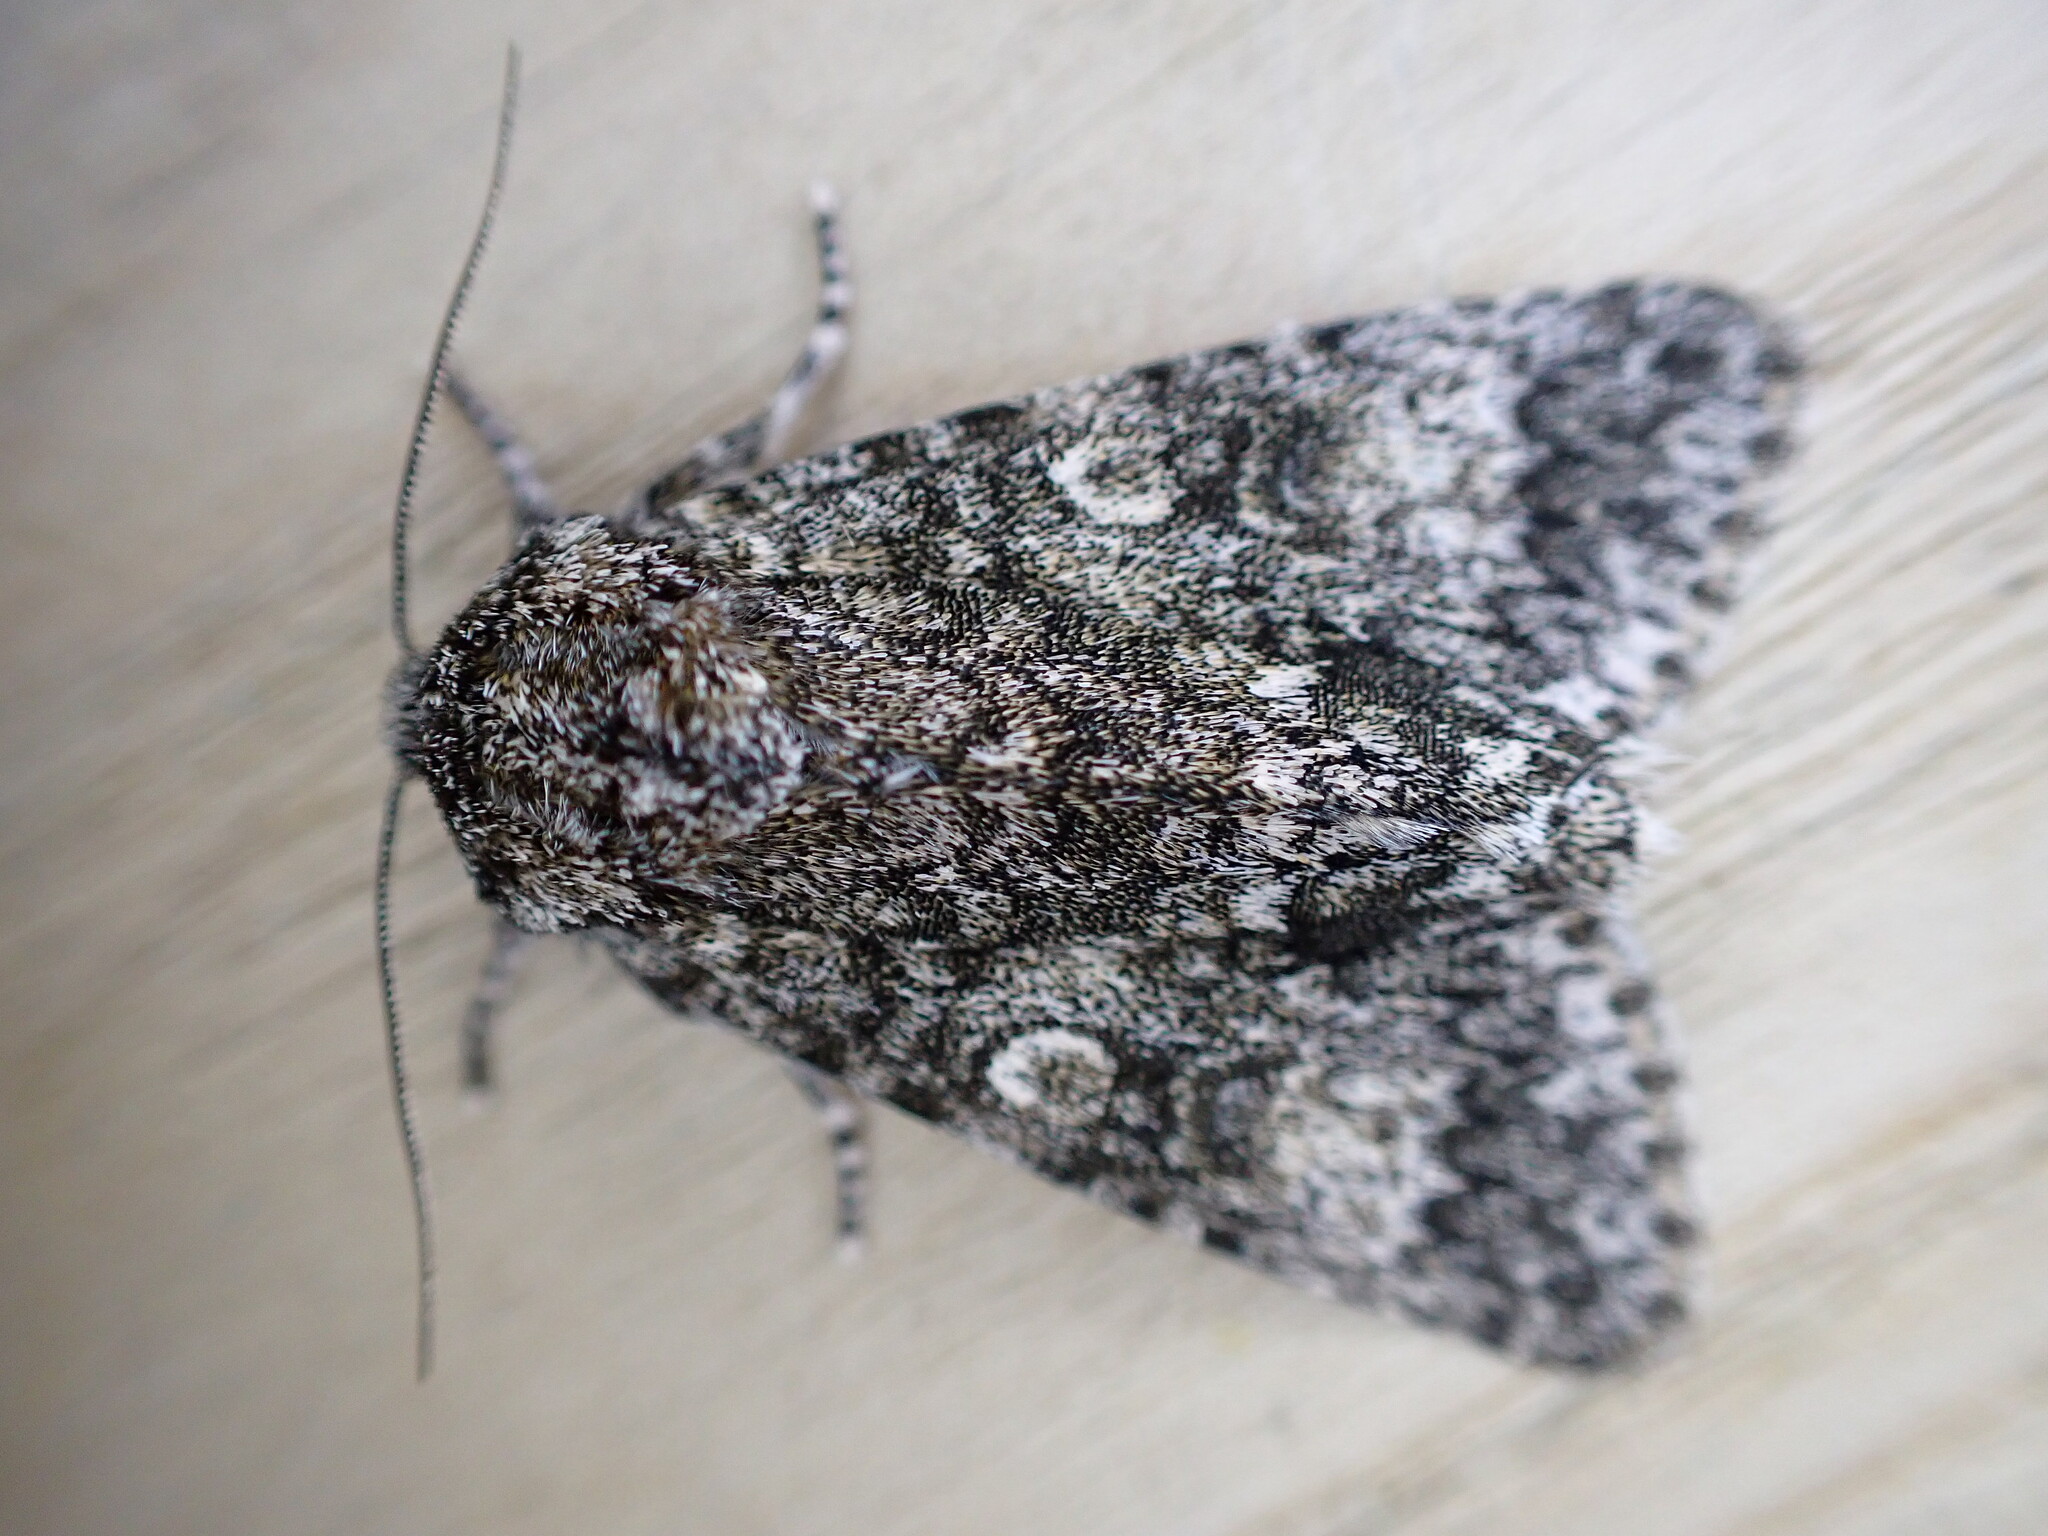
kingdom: Animalia
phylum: Arthropoda
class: Insecta
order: Lepidoptera
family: Noctuidae
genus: Acronicta
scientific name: Acronicta megacephala
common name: Poplar grey
